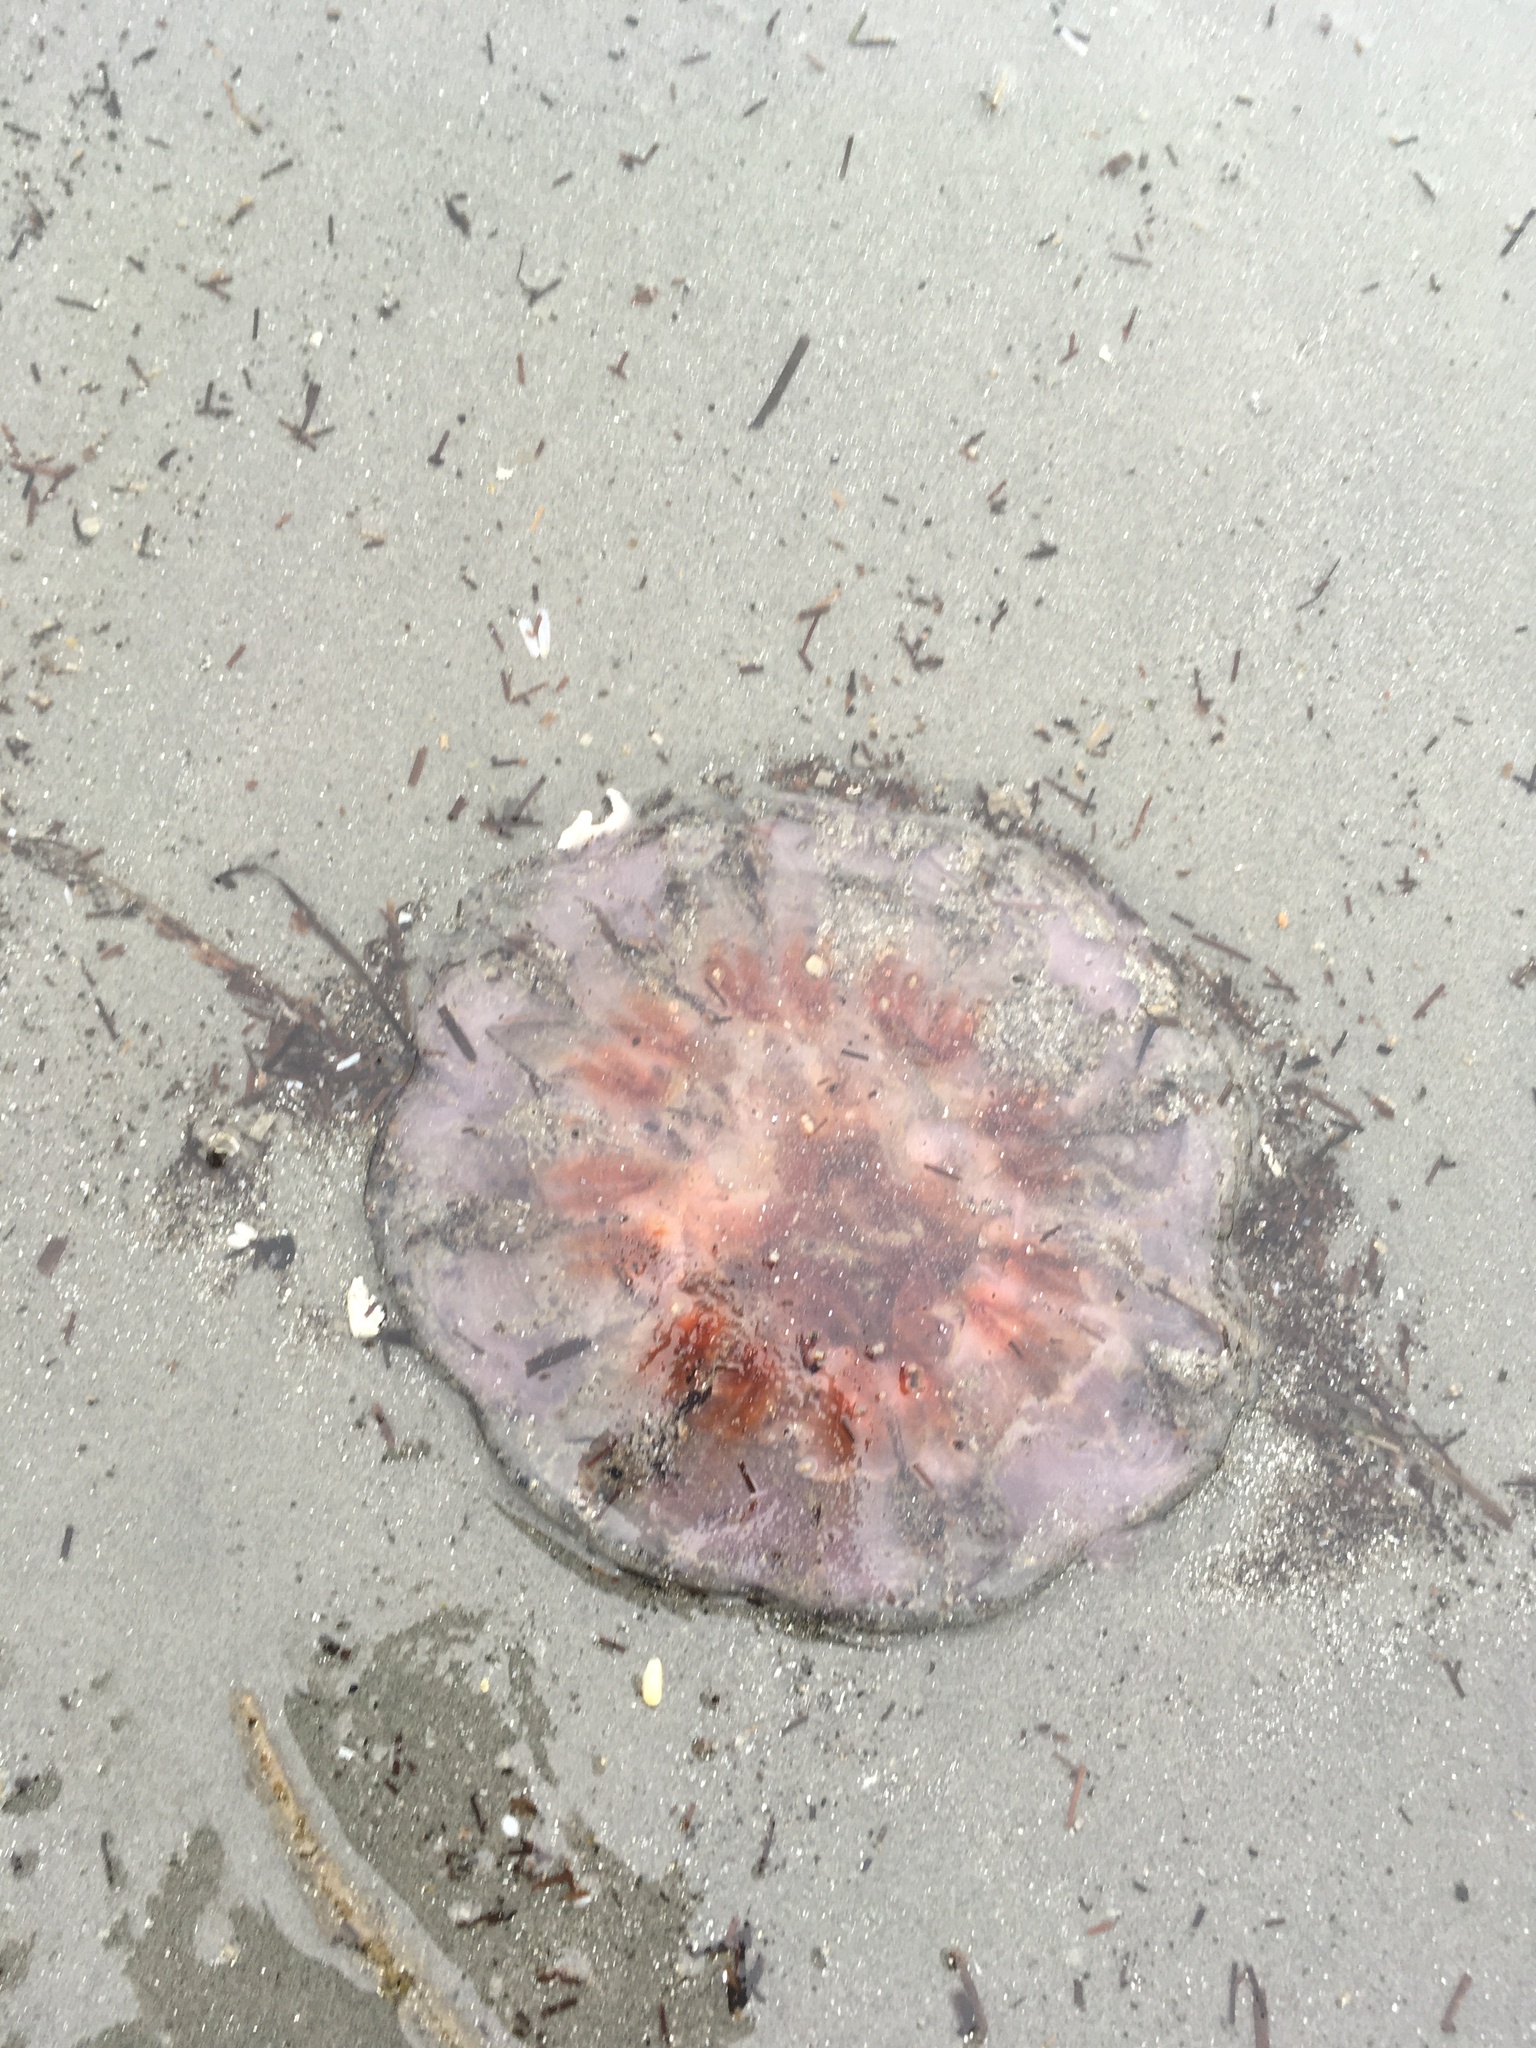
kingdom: Animalia
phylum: Cnidaria
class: Scyphozoa
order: Semaeostomeae
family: Cyaneidae
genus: Cyanea
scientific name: Cyanea versicolor
